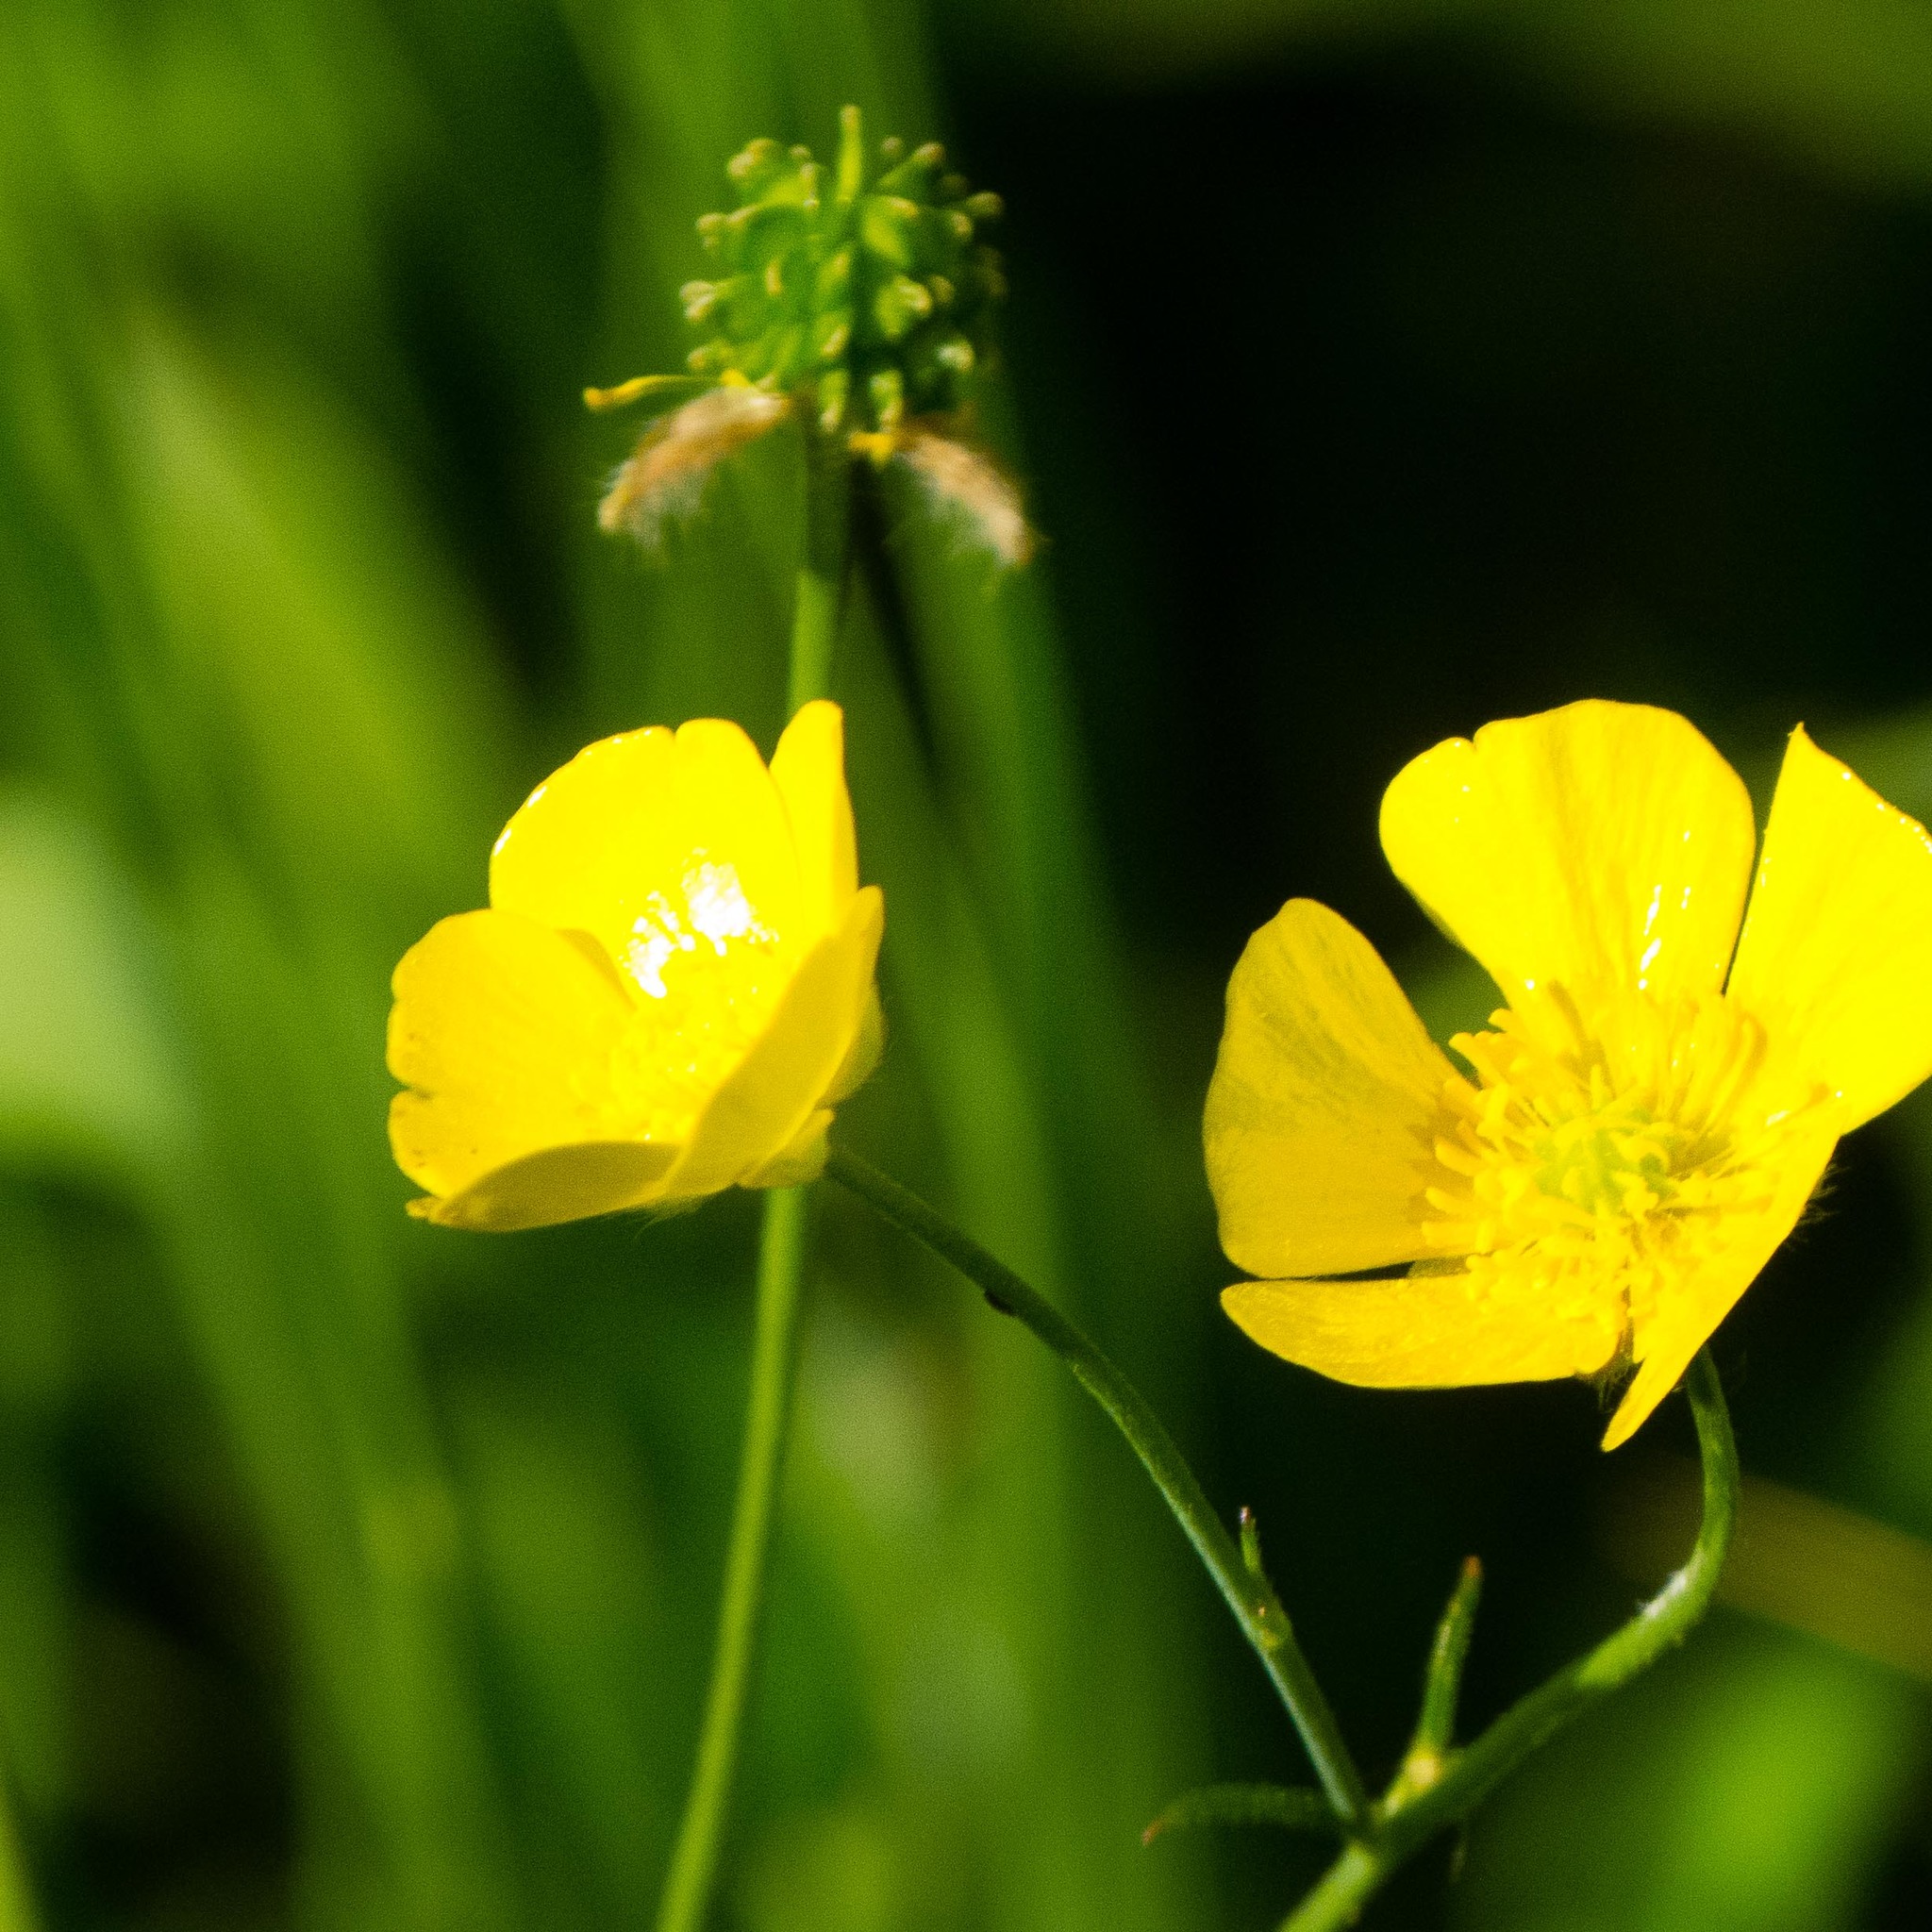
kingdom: Plantae
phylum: Tracheophyta
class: Magnoliopsida
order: Ranunculales
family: Ranunculaceae
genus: Ranunculus
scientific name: Ranunculus acris
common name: Meadow buttercup
